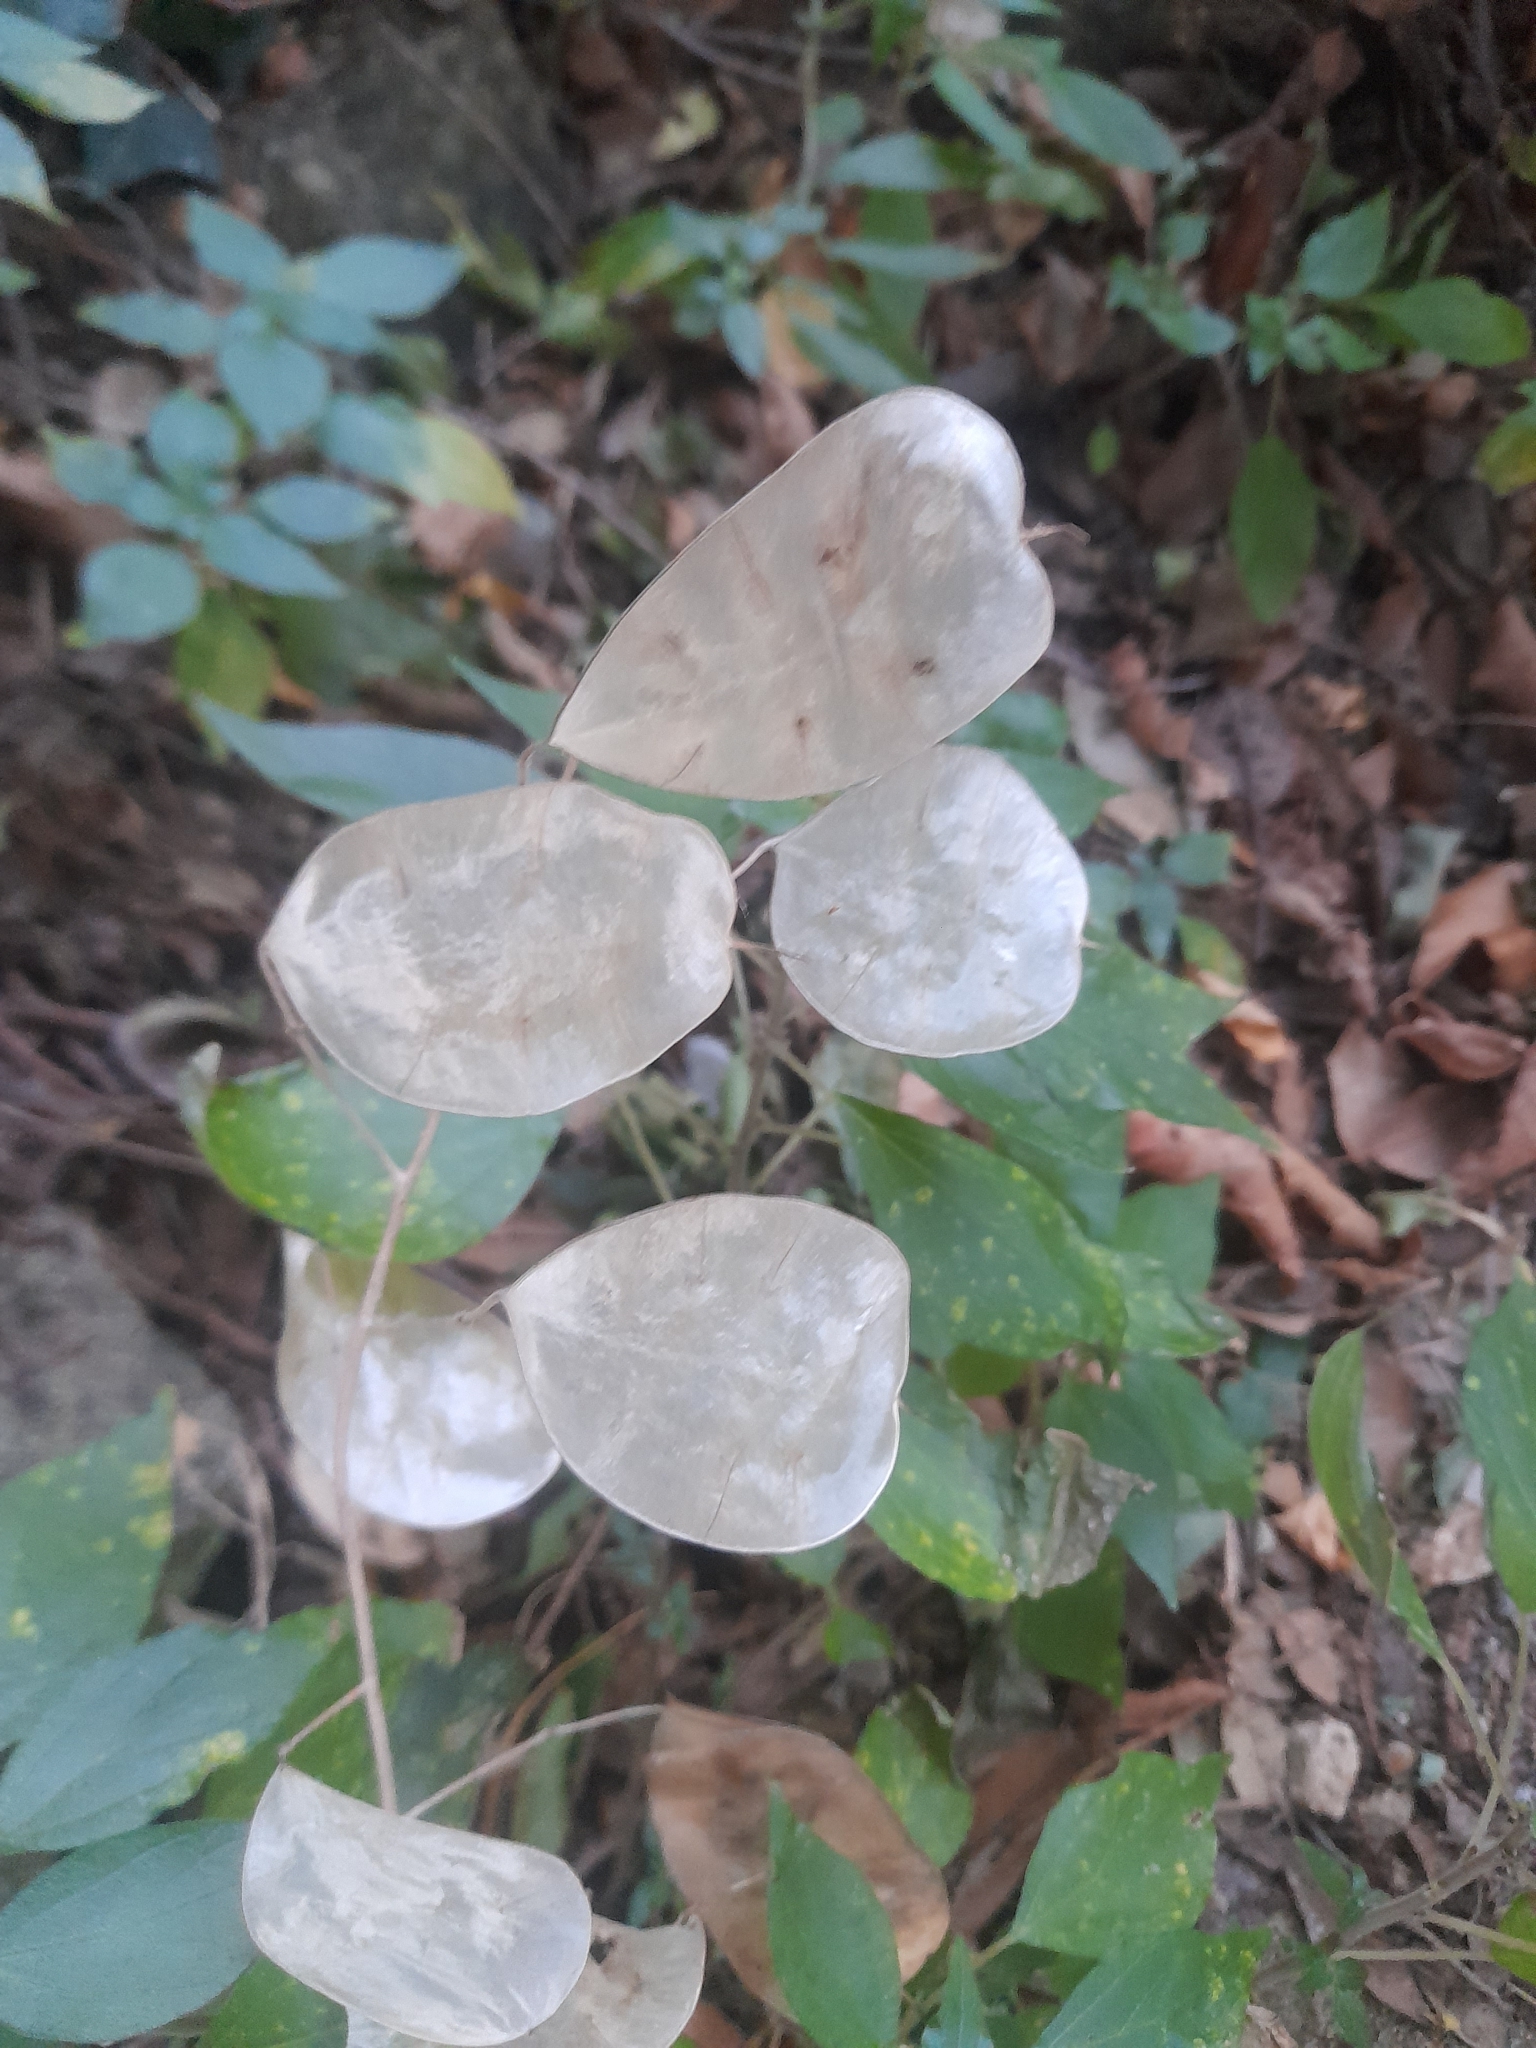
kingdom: Plantae
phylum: Tracheophyta
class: Magnoliopsida
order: Brassicales
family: Brassicaceae
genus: Lunaria
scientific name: Lunaria annua
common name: Honesty
